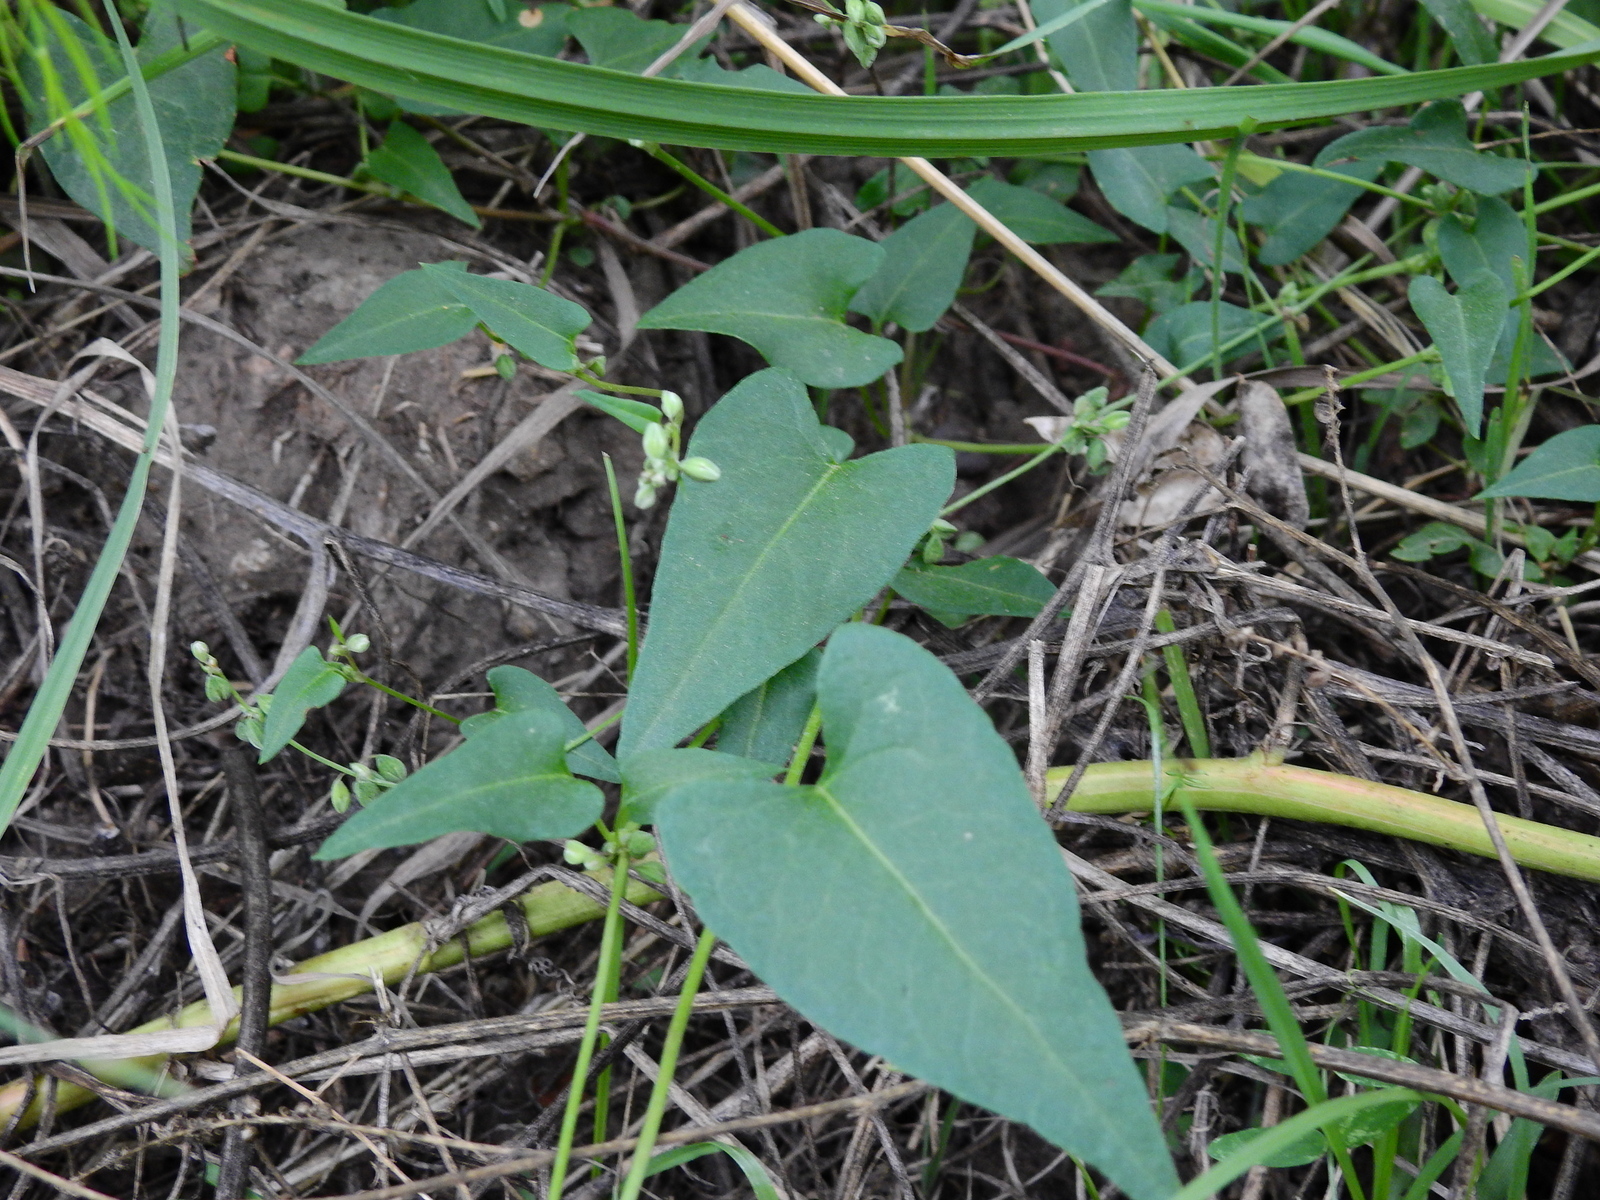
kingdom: Plantae
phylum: Tracheophyta
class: Magnoliopsida
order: Caryophyllales
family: Polygonaceae
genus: Fallopia
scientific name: Fallopia convolvulus
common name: Black bindweed
